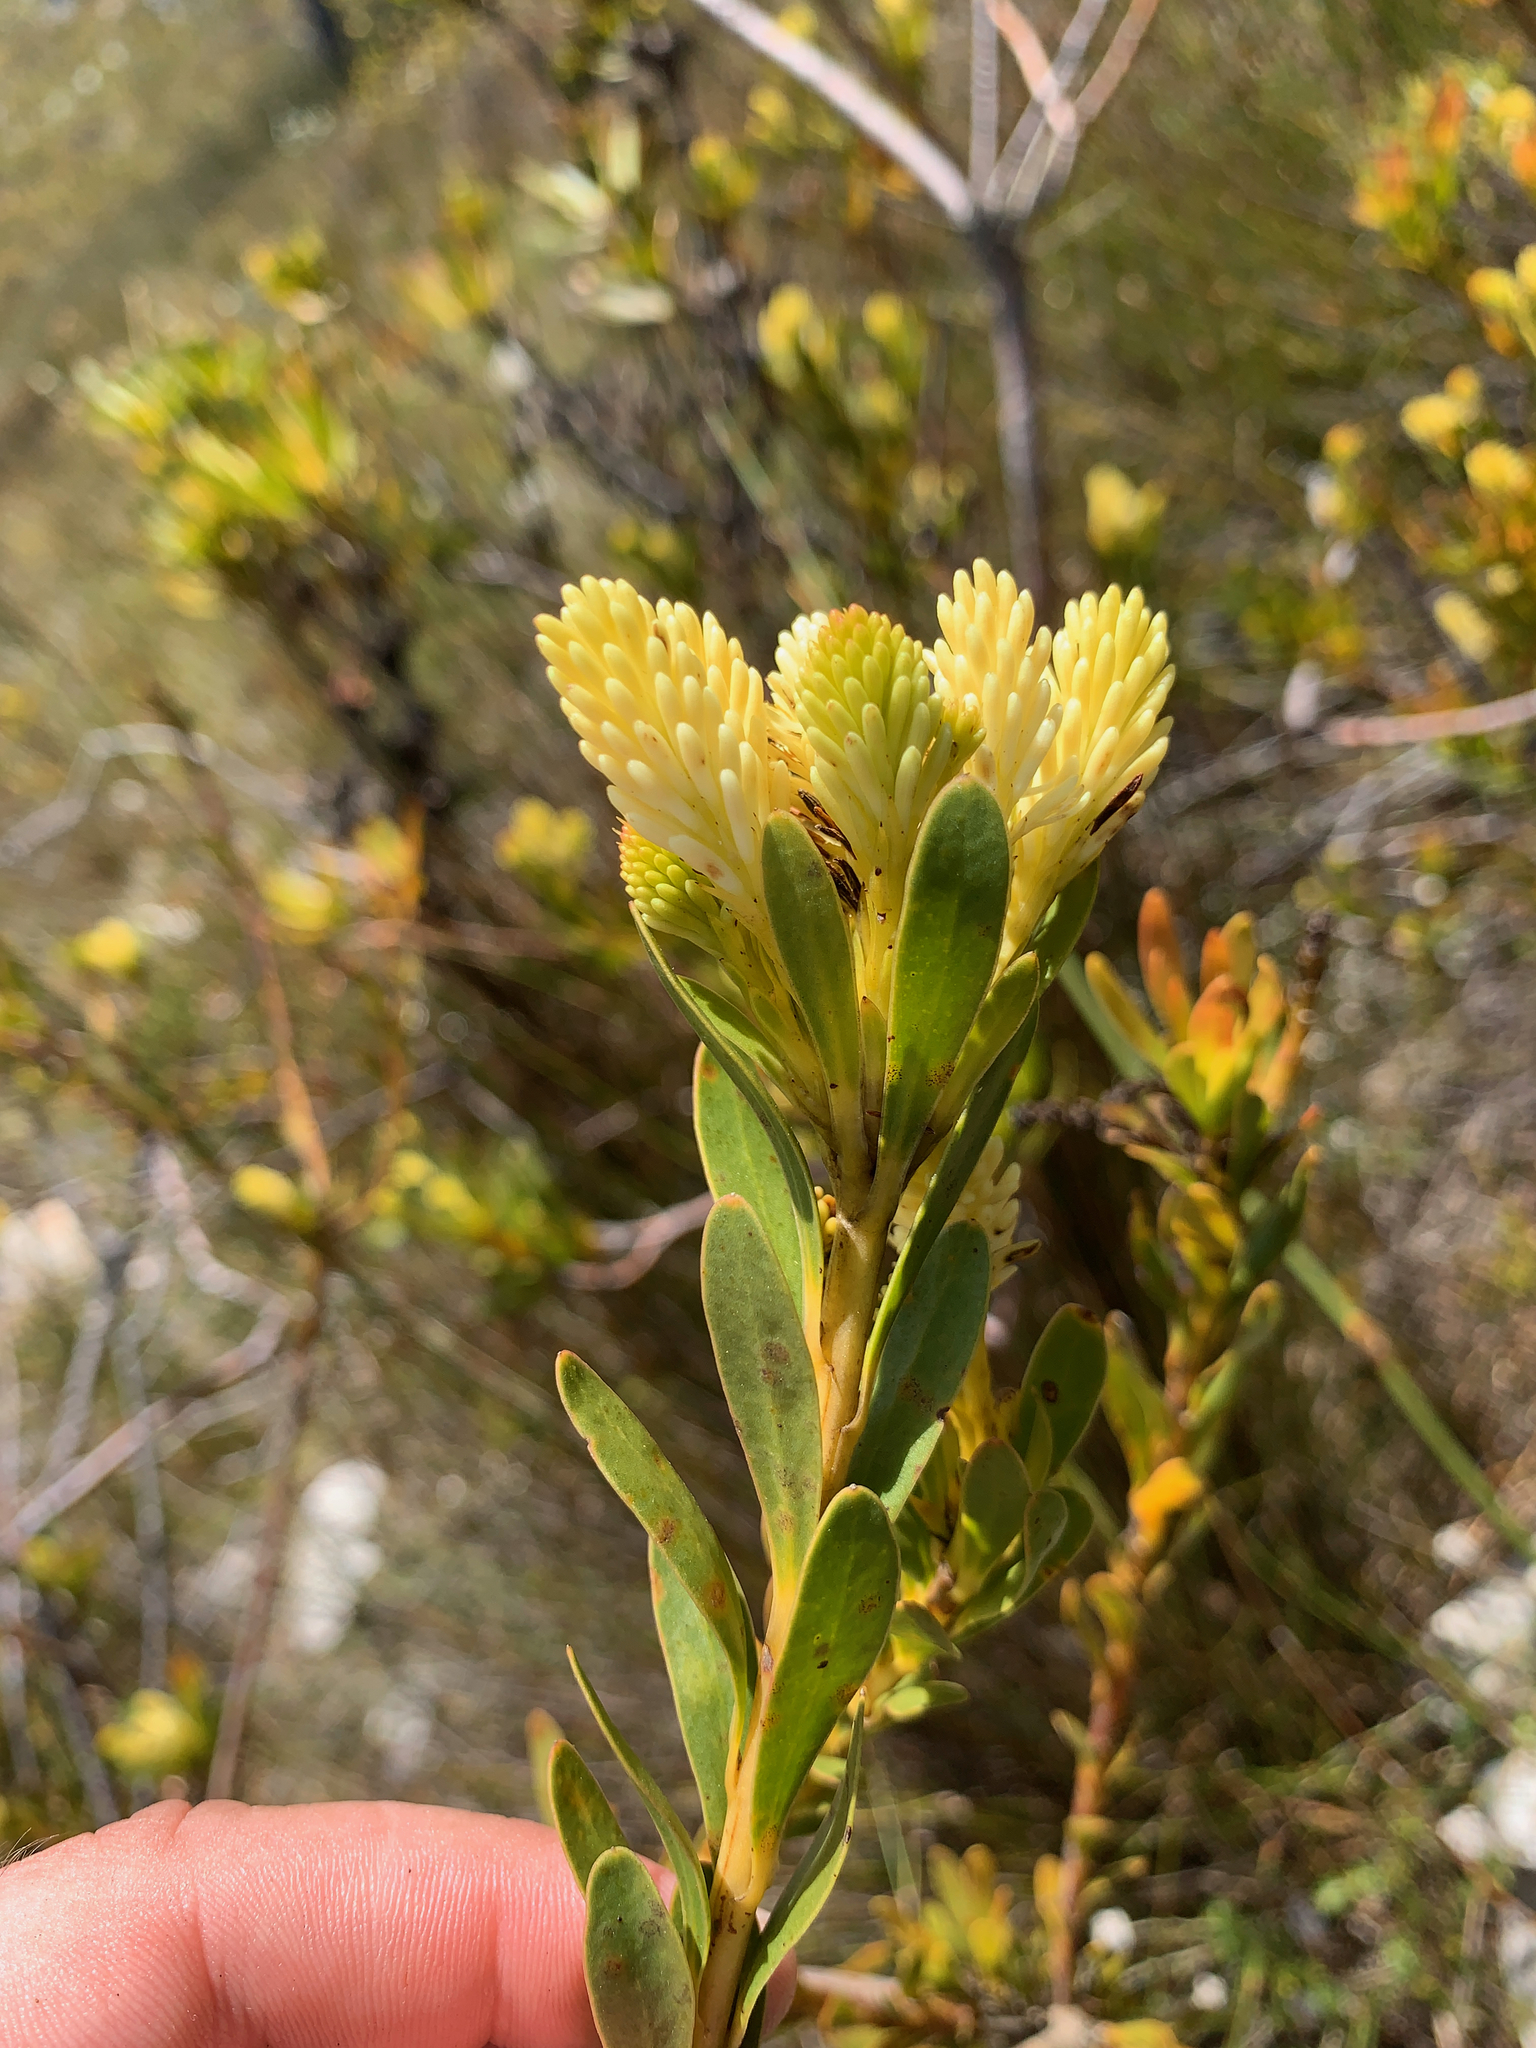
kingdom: Plantae
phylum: Tracheophyta
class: Magnoliopsida
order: Proteales
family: Proteaceae
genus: Aulax
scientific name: Aulax umbellata
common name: Broad-leaf featherbush
